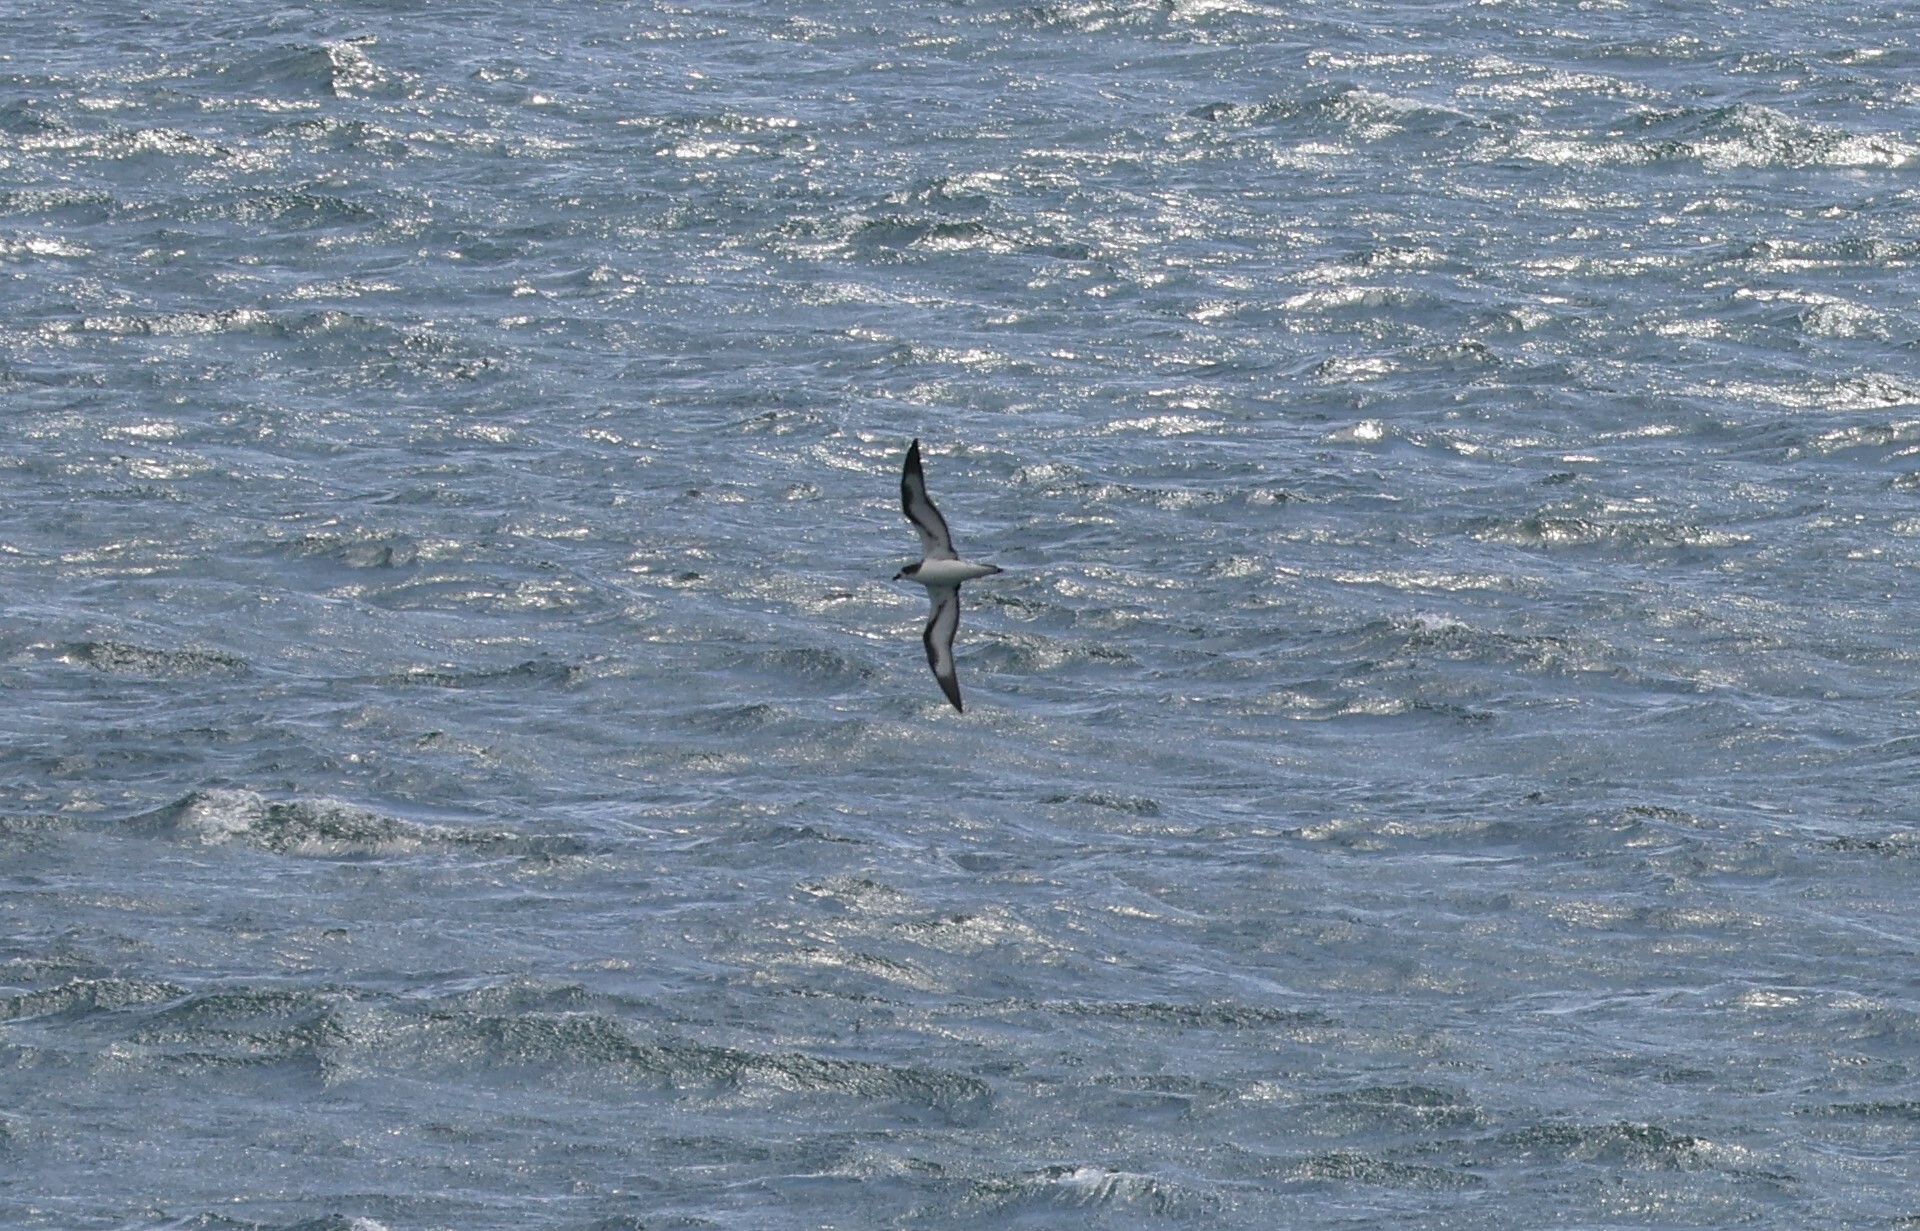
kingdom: Animalia
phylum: Chordata
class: Aves
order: Procellariiformes
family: Procellariidae
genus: Pterodroma
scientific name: Pterodroma phaeopygia
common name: Galapagos petrel
